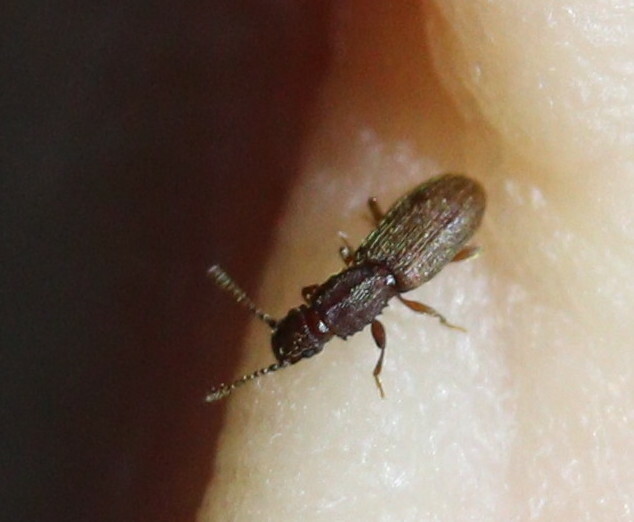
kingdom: Animalia
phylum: Arthropoda
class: Insecta
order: Coleoptera
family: Silvanidae
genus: Oryzaephilus
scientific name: Oryzaephilus surinamensis
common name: Sawtoothed grain beetle
